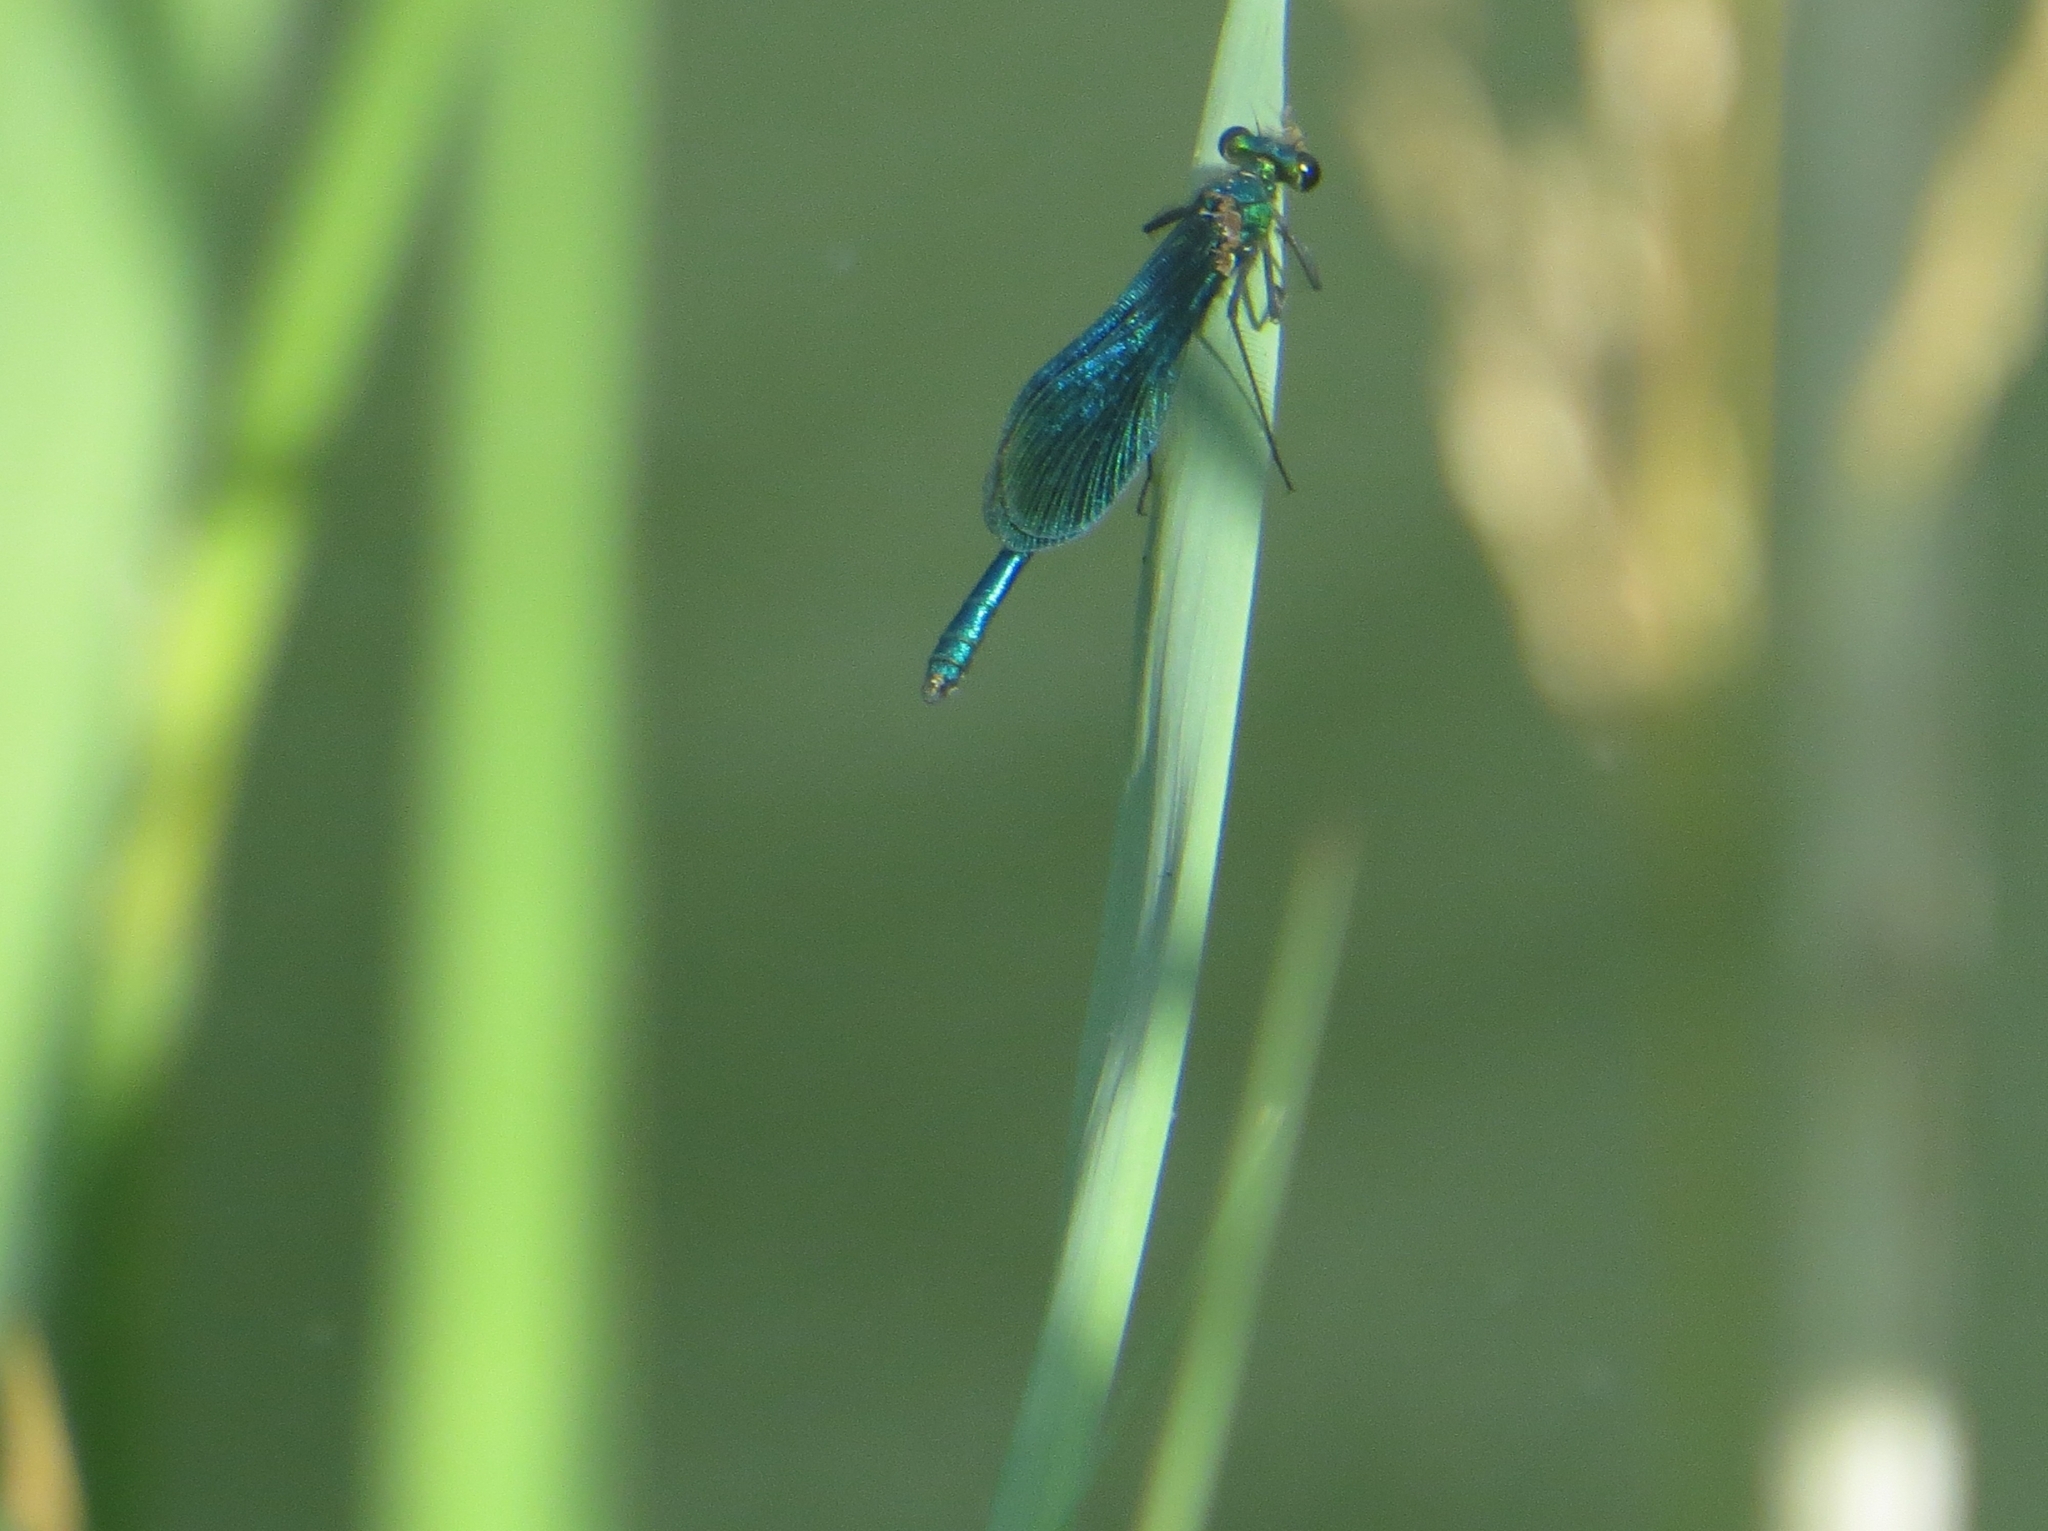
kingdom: Animalia
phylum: Arthropoda
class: Insecta
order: Odonata
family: Calopterygidae
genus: Calopteryx
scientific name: Calopteryx virgo
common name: Beautiful demoiselle
